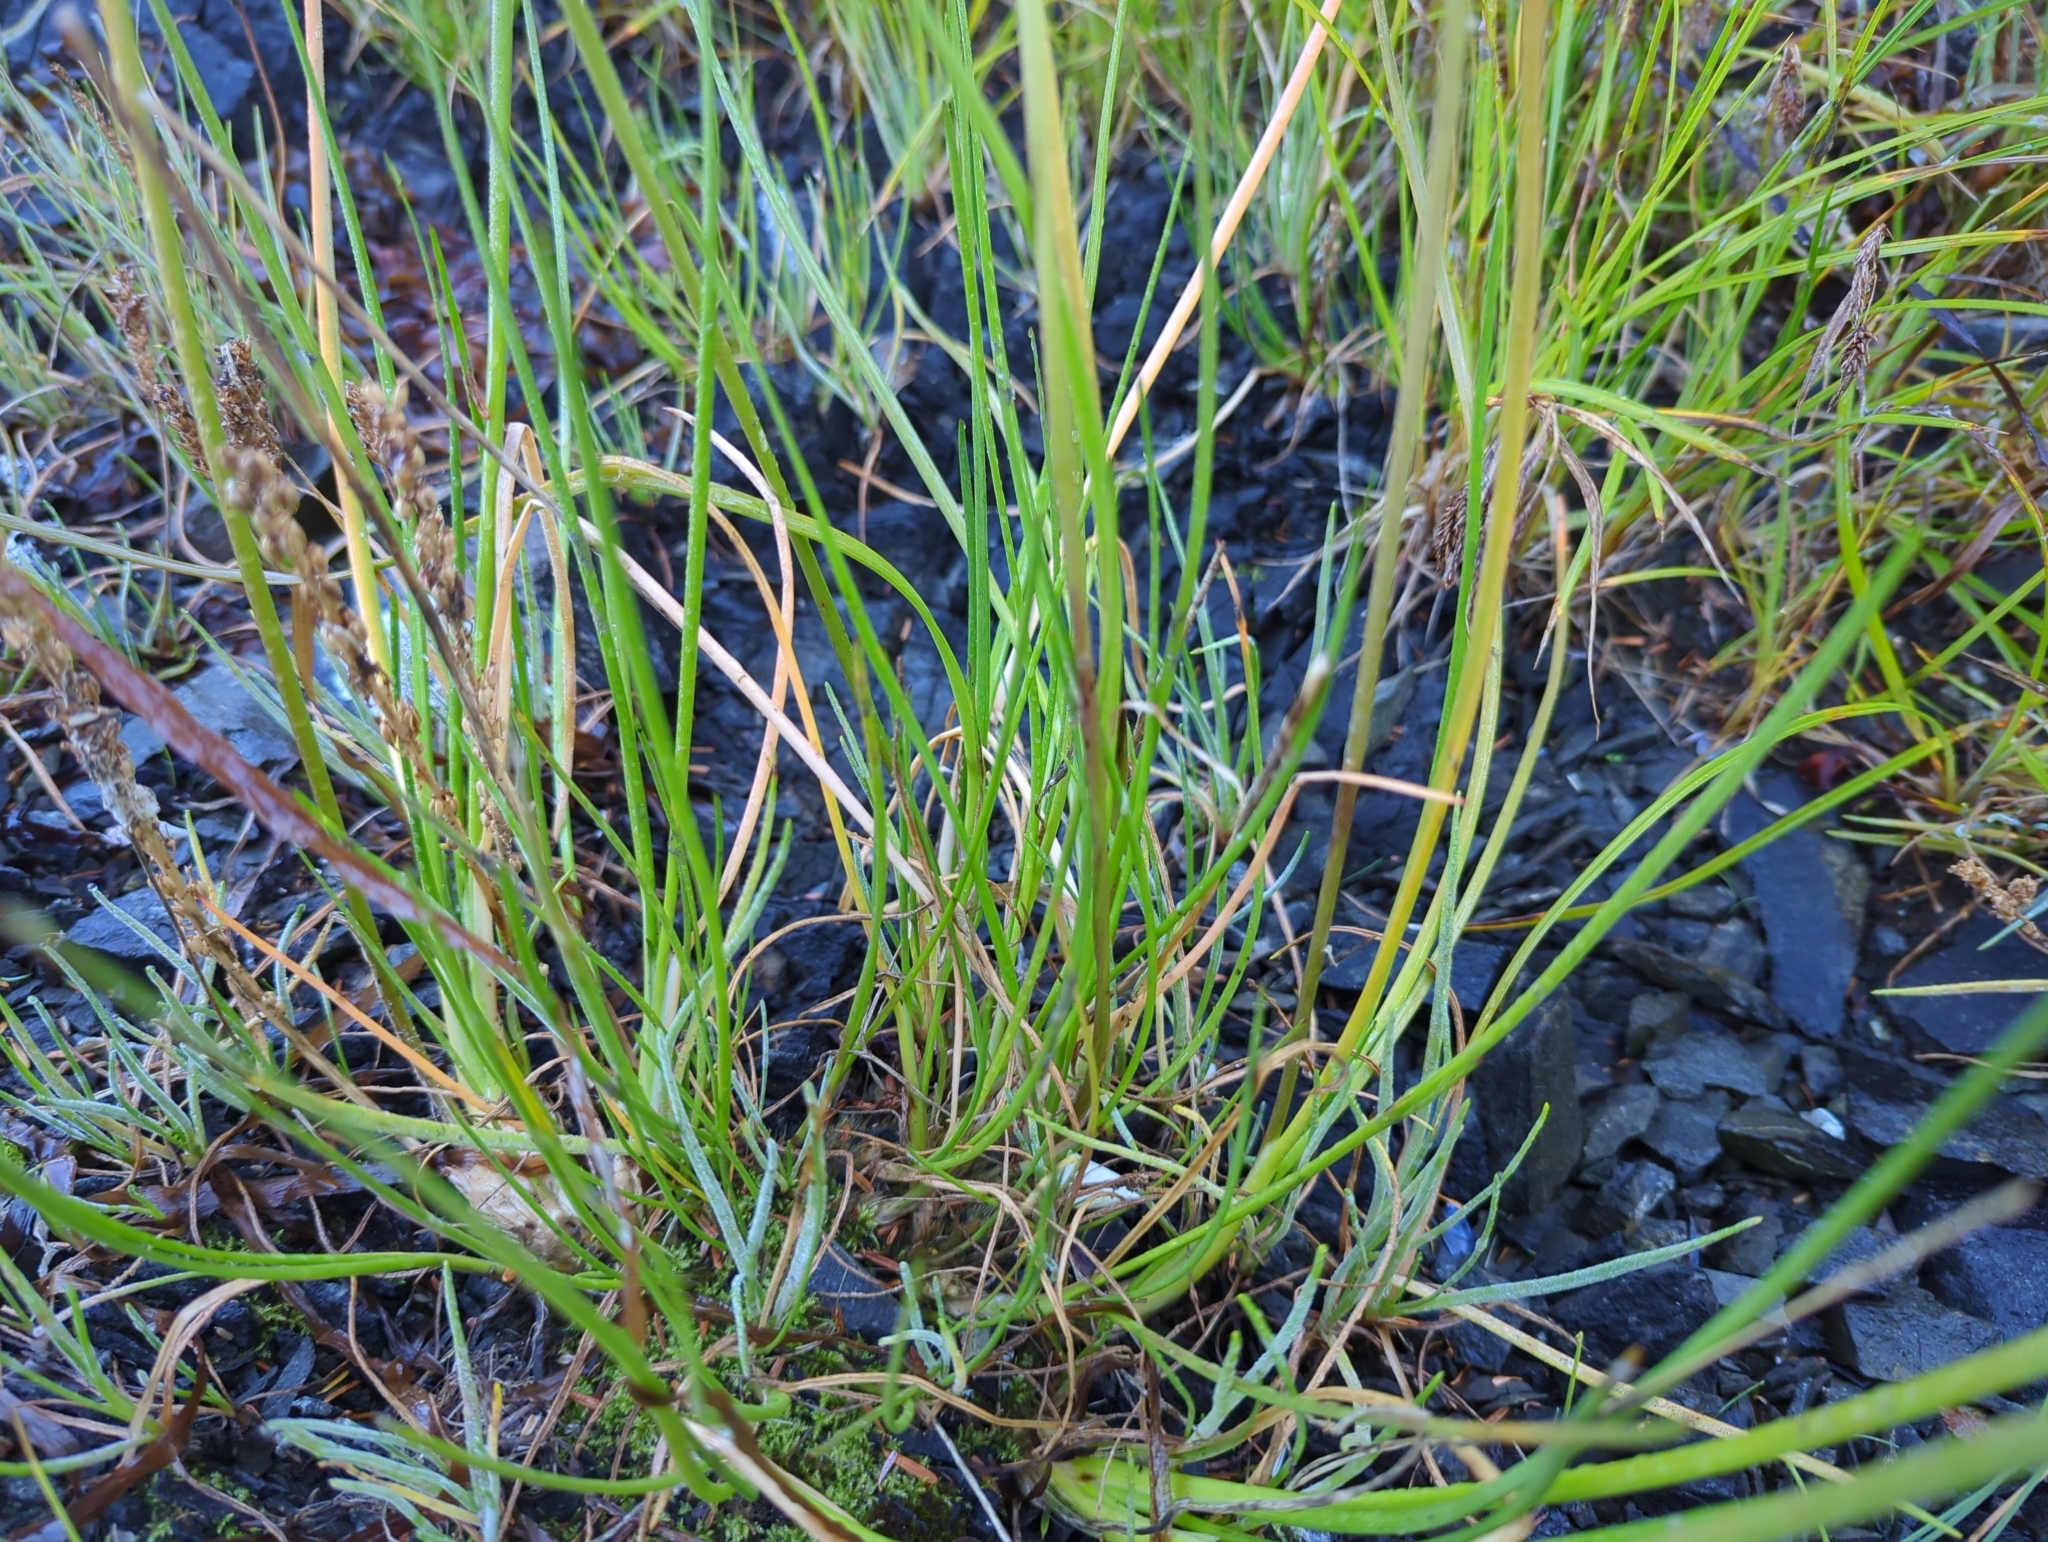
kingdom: Plantae
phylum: Tracheophyta
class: Liliopsida
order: Alismatales
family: Juncaginaceae
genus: Triglochin
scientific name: Triglochin maritima
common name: Sea arrowgrass
